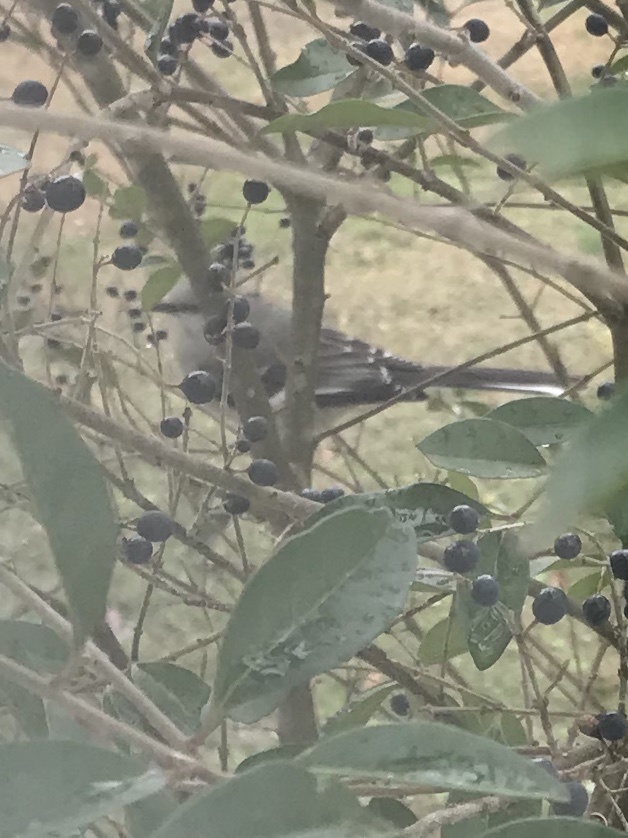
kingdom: Animalia
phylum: Chordata
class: Aves
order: Passeriformes
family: Mimidae
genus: Mimus
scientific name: Mimus polyglottos
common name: Northern mockingbird
